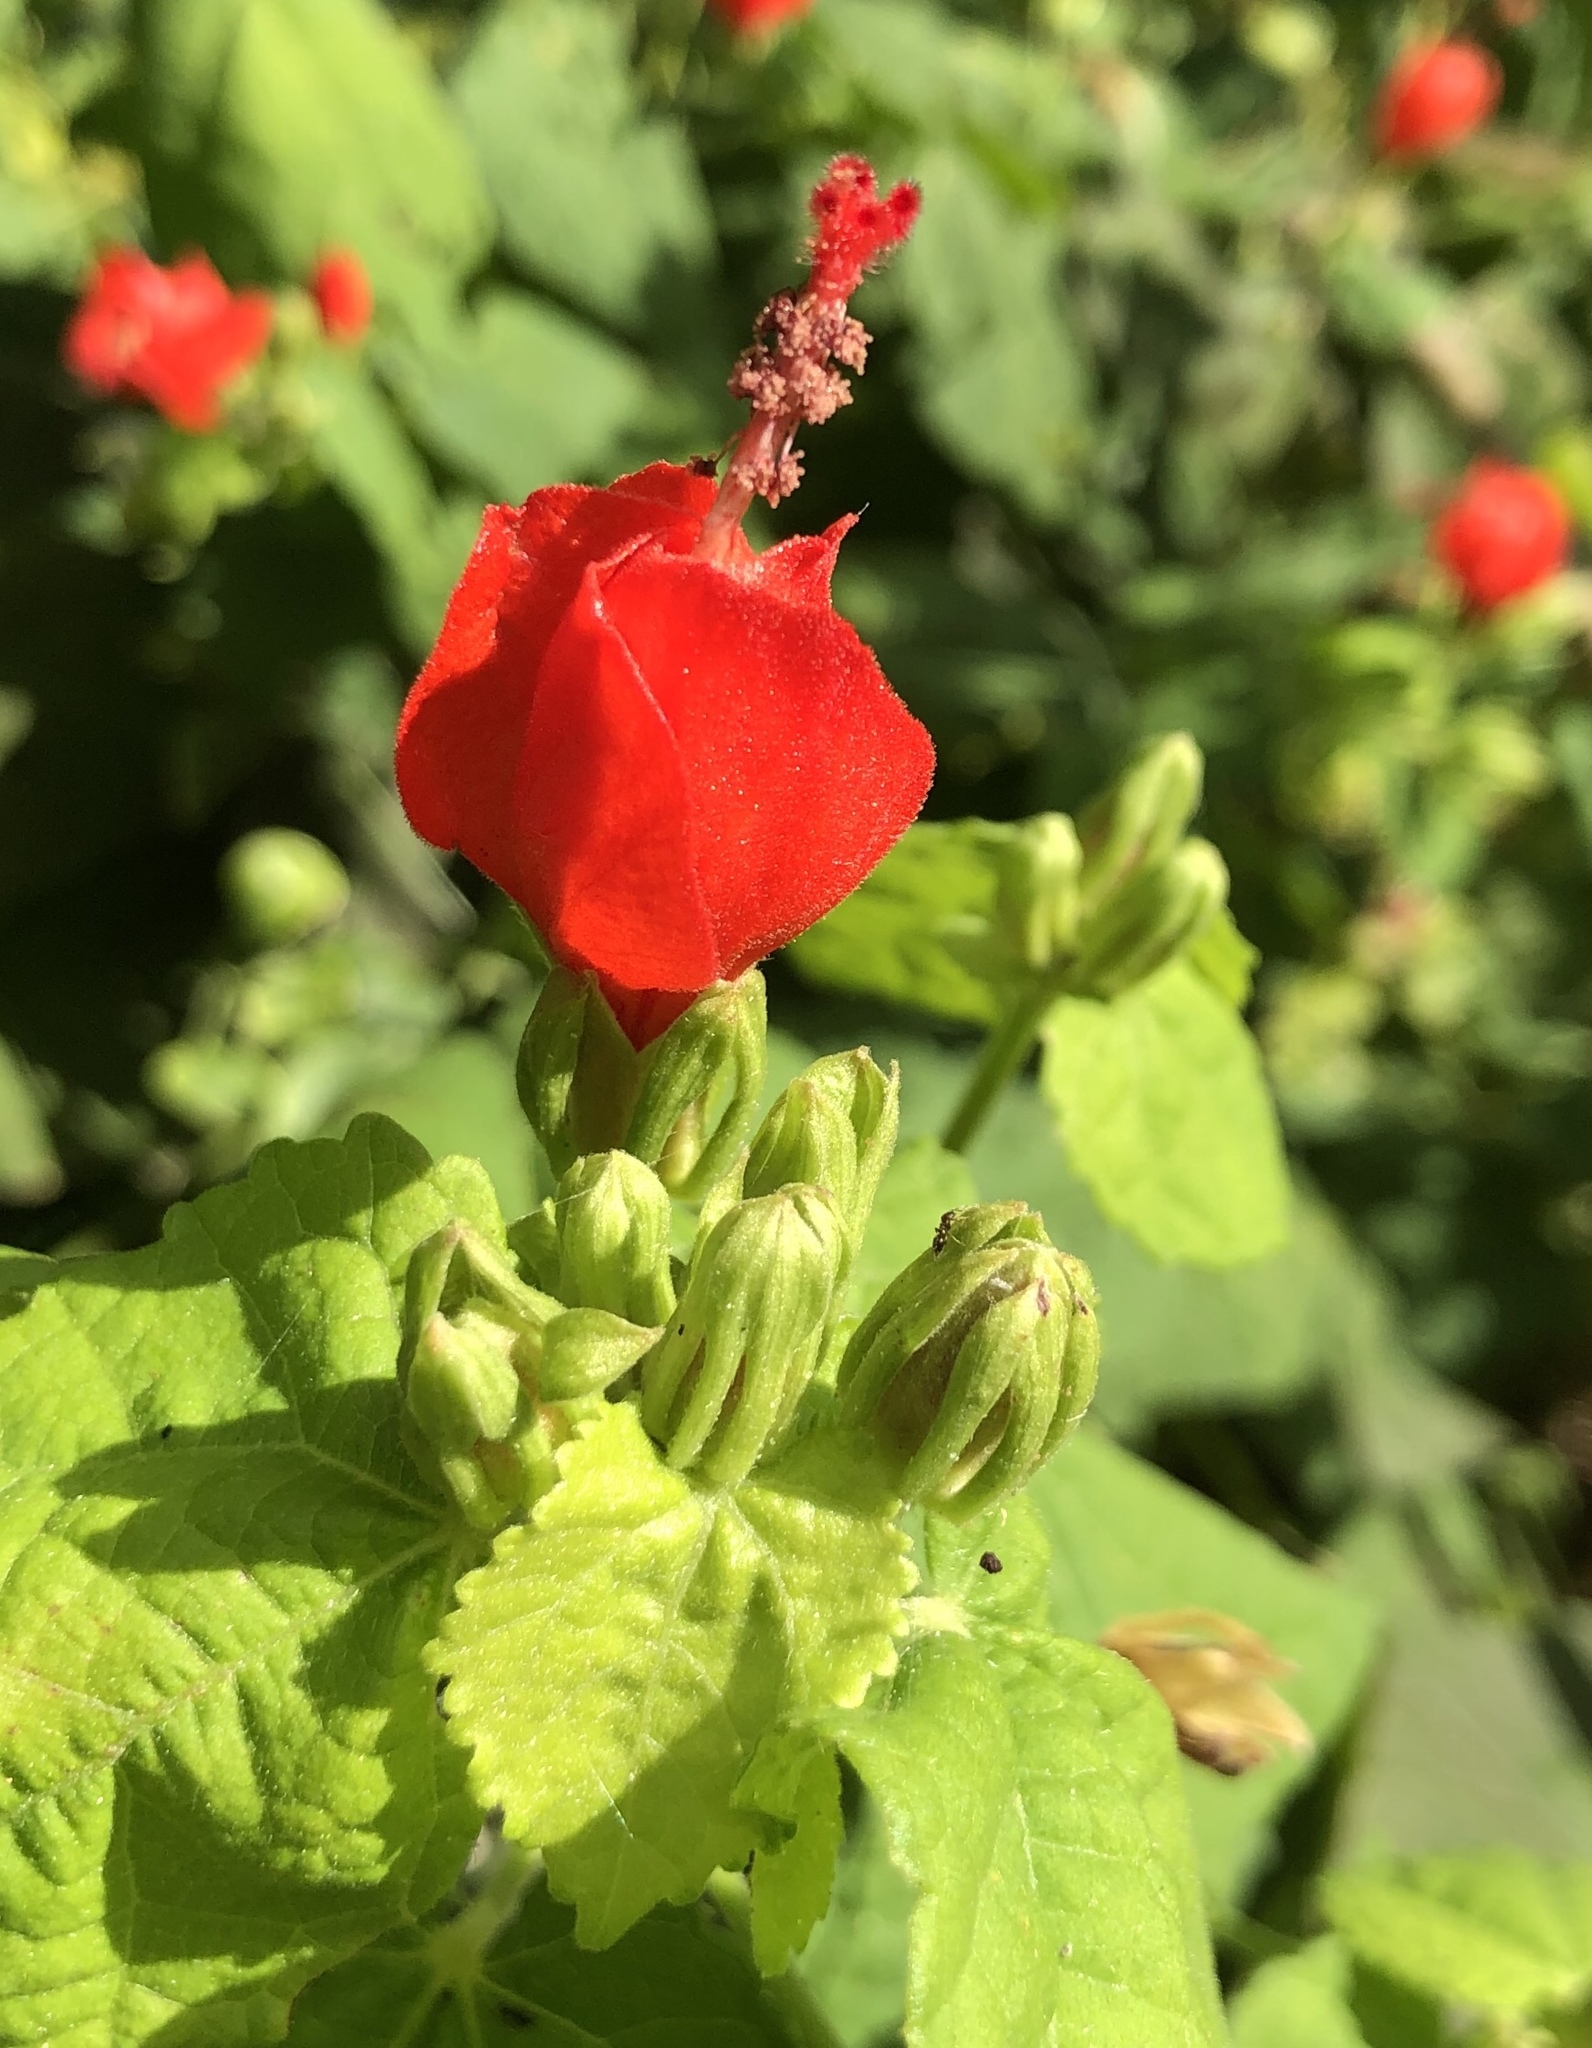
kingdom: Plantae
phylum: Tracheophyta
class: Magnoliopsida
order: Malvales
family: Malvaceae
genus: Malvaviscus
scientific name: Malvaviscus arboreus
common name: Wax mallow
